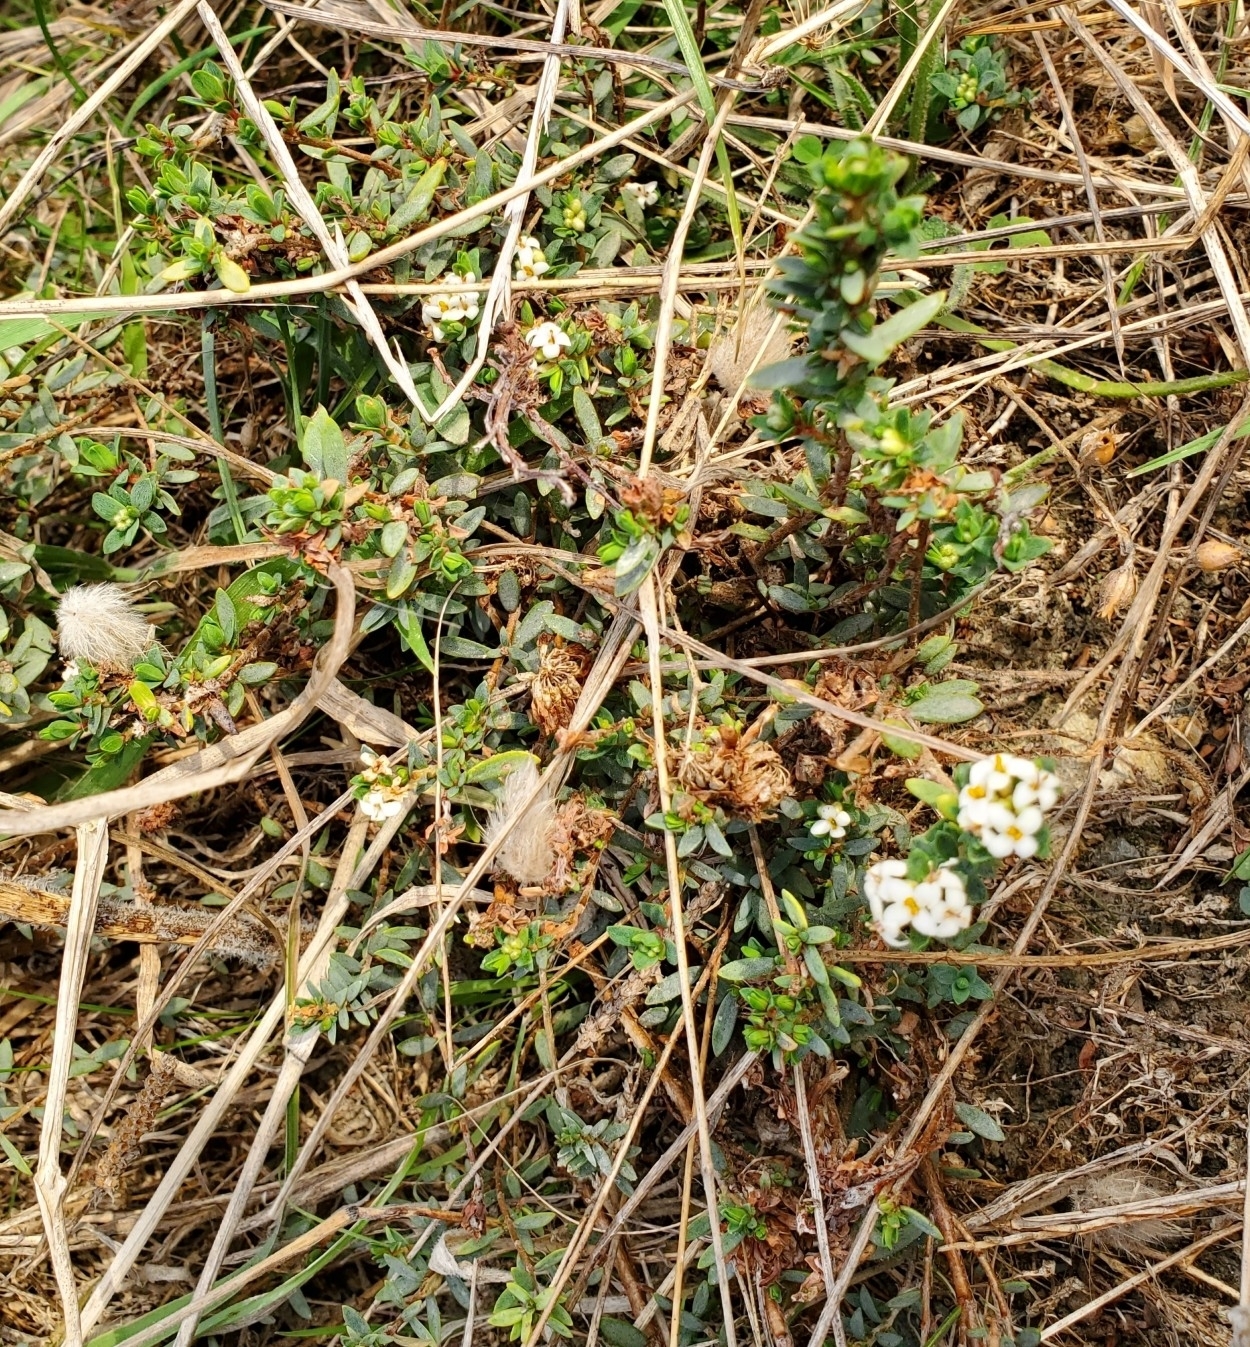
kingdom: Plantae
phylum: Tracheophyta
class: Magnoliopsida
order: Malvales
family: Thymelaeaceae
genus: Pimelea
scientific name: Pimelea prostrata
